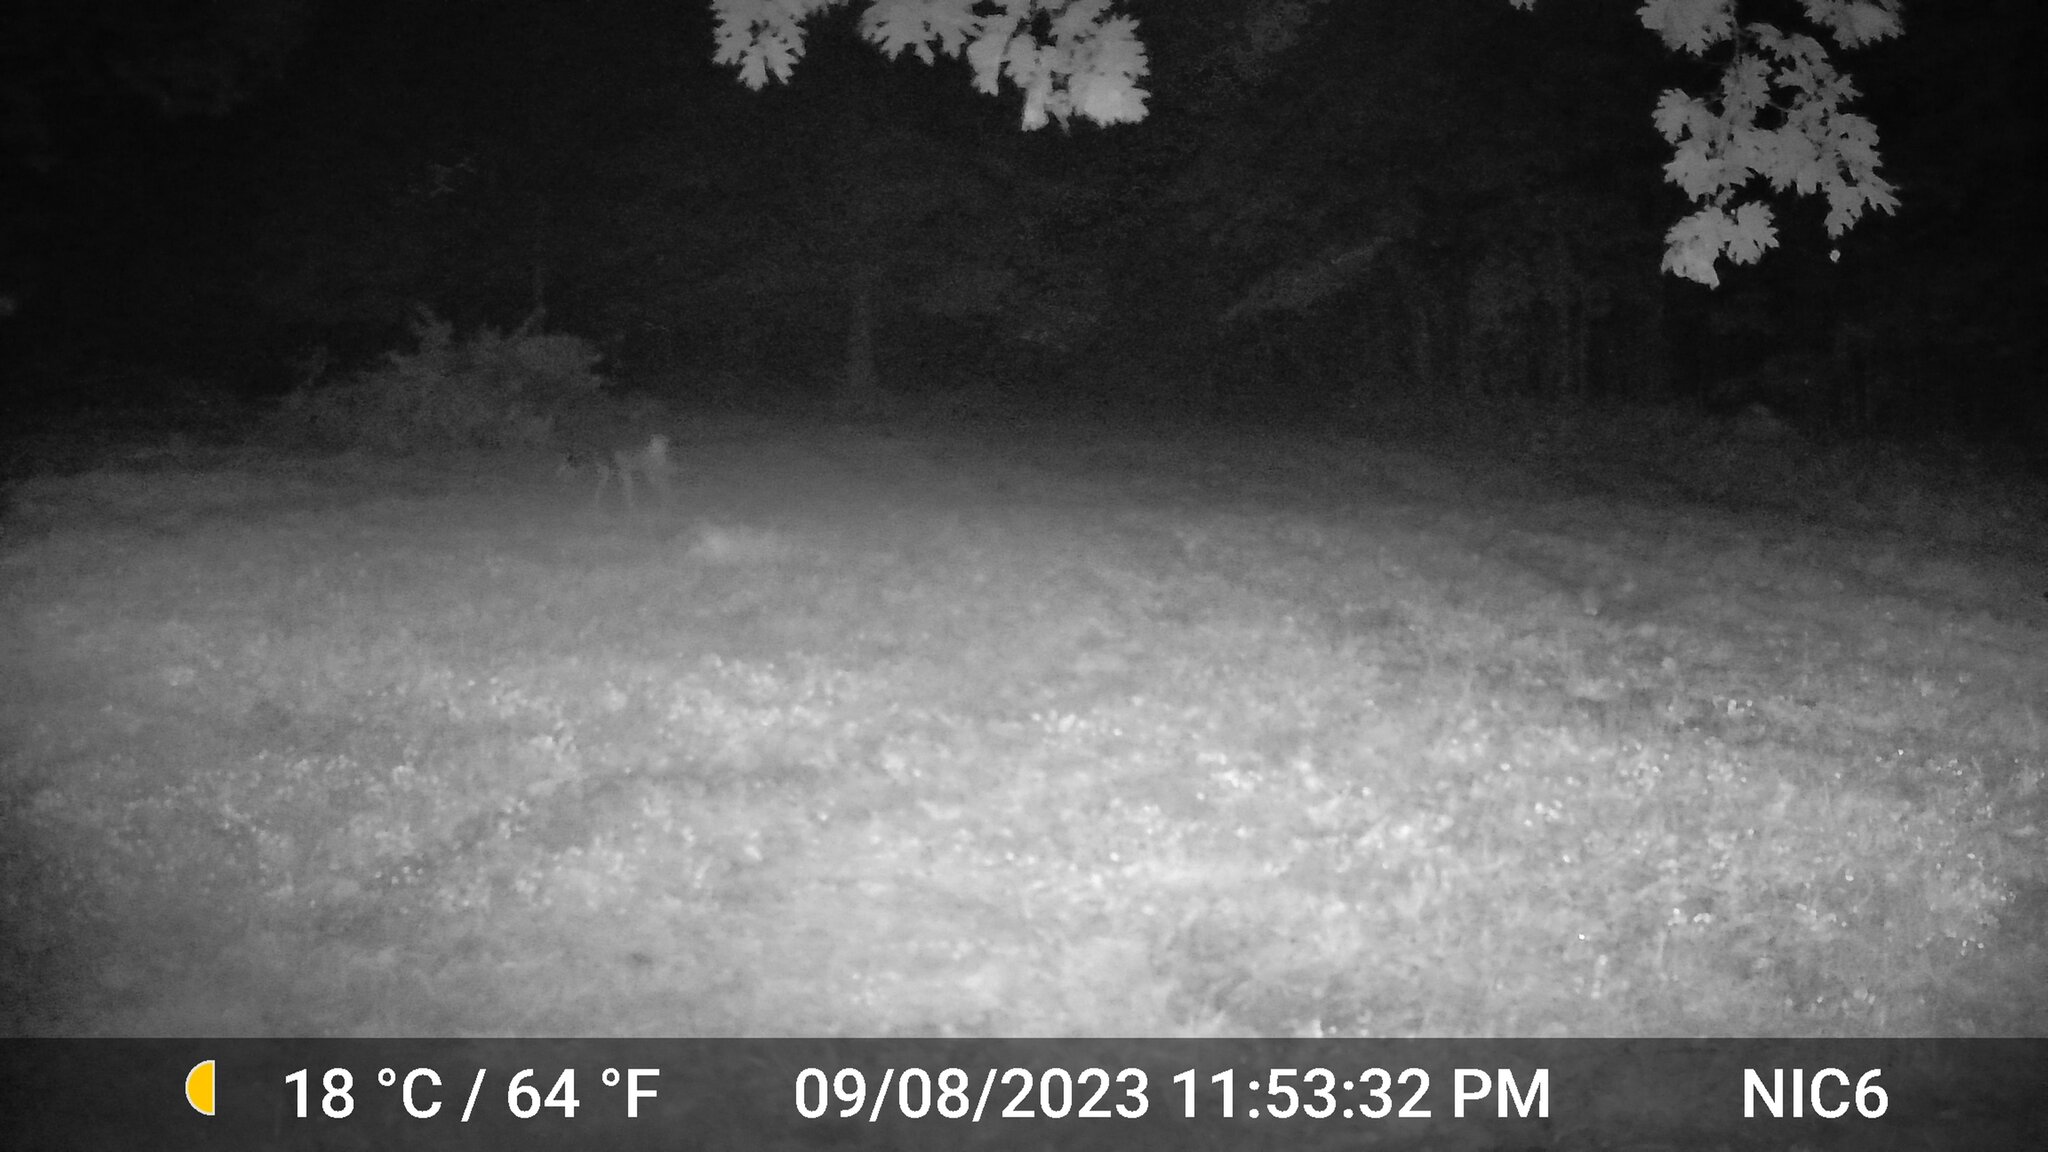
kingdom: Animalia
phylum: Chordata
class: Mammalia
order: Artiodactyla
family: Cervidae
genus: Odocoileus
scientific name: Odocoileus virginianus
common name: White-tailed deer
